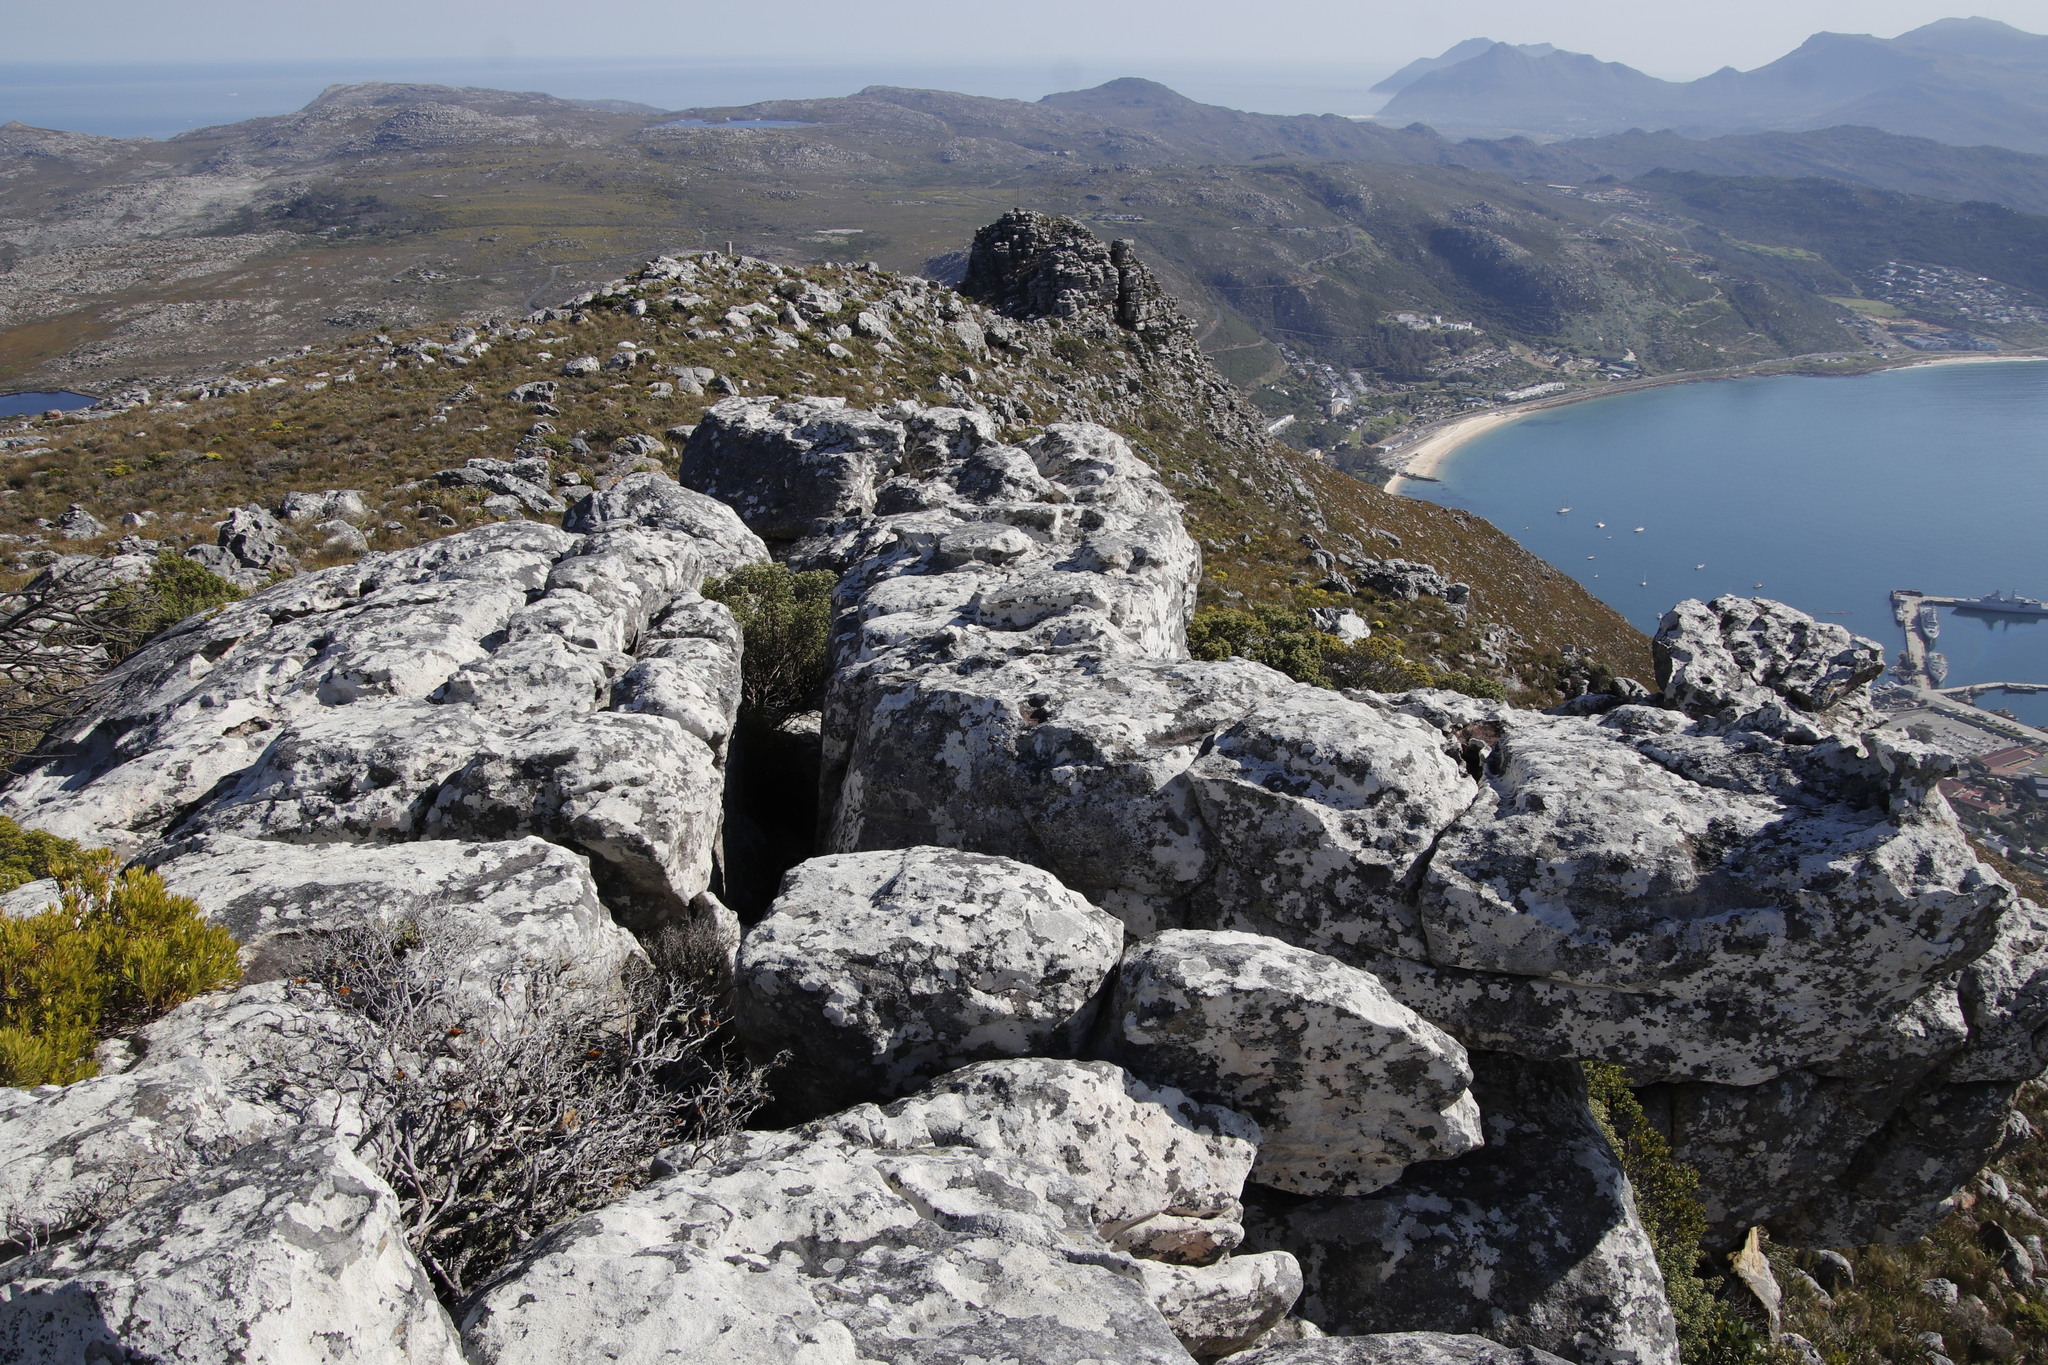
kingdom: Plantae
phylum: Tracheophyta
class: Magnoliopsida
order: Rosales
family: Rhamnaceae
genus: Phylica
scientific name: Phylica buxifolia
